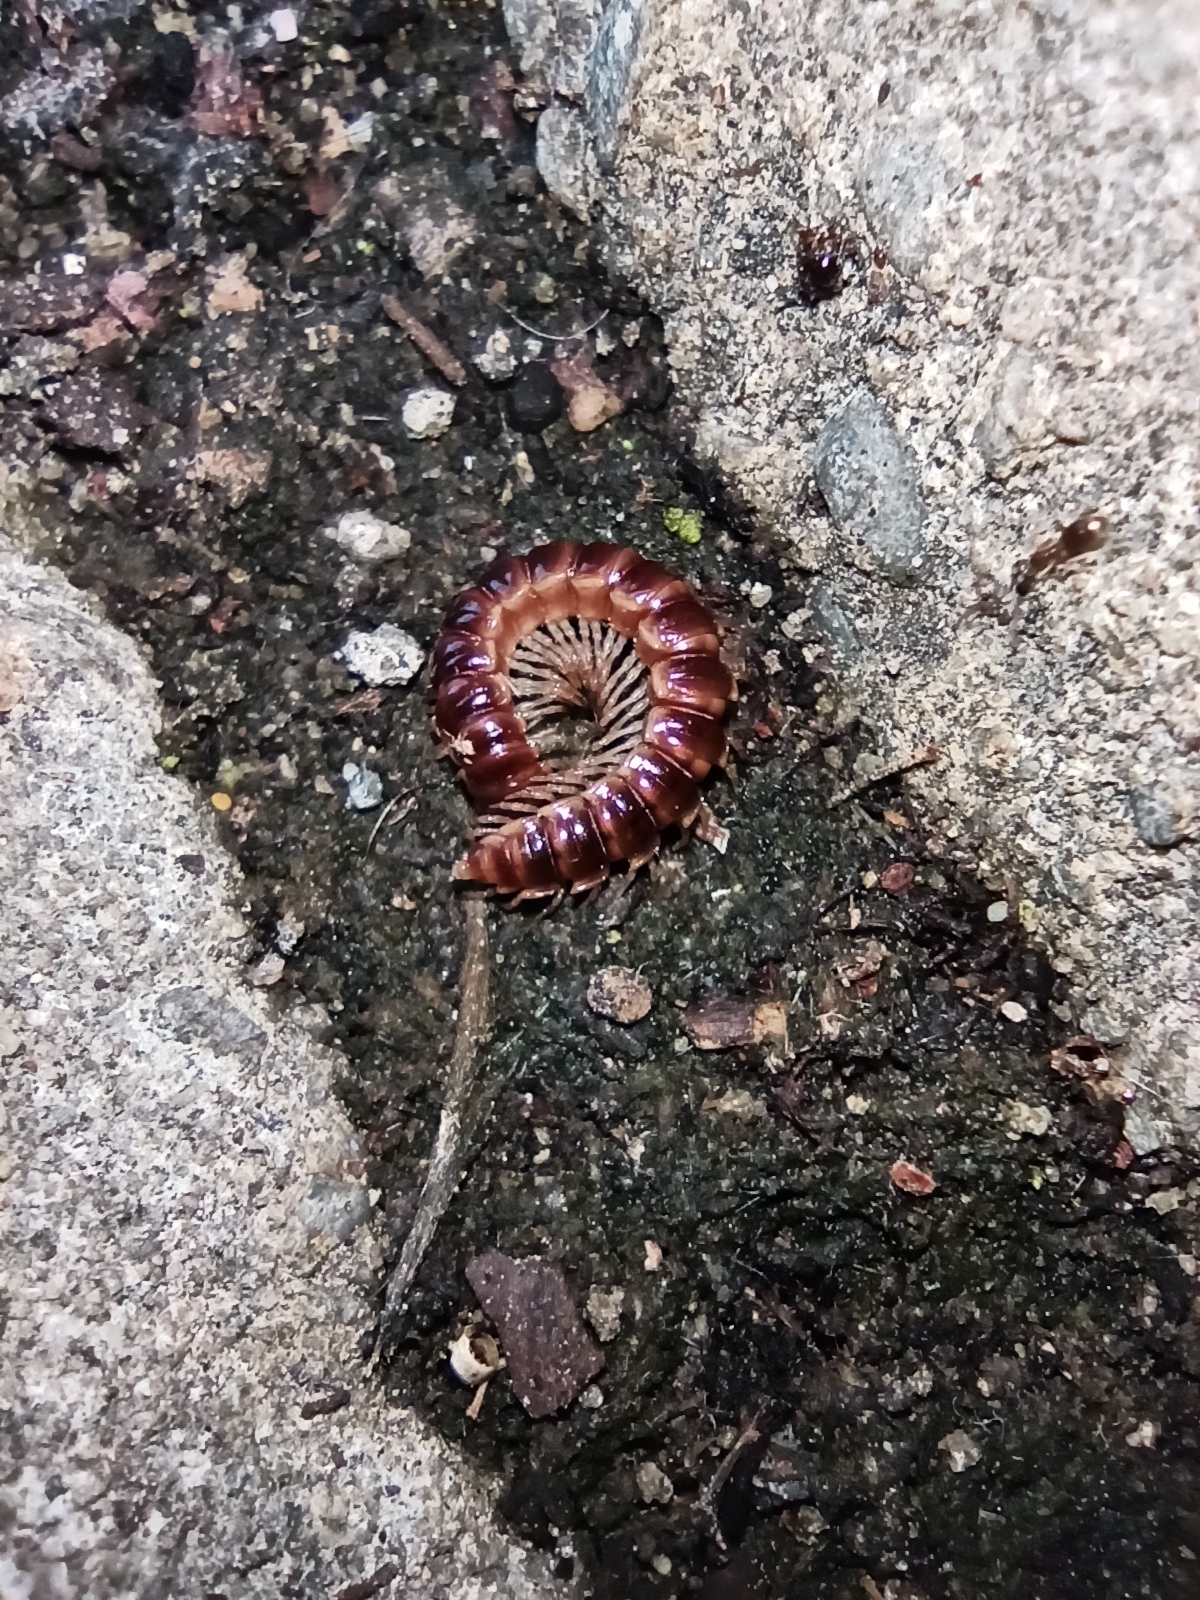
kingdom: Animalia
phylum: Arthropoda
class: Diplopoda
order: Polydesmida
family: Paradoxosomatidae
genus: Oxidus
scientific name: Oxidus gracilis
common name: Greenhouse millipede
